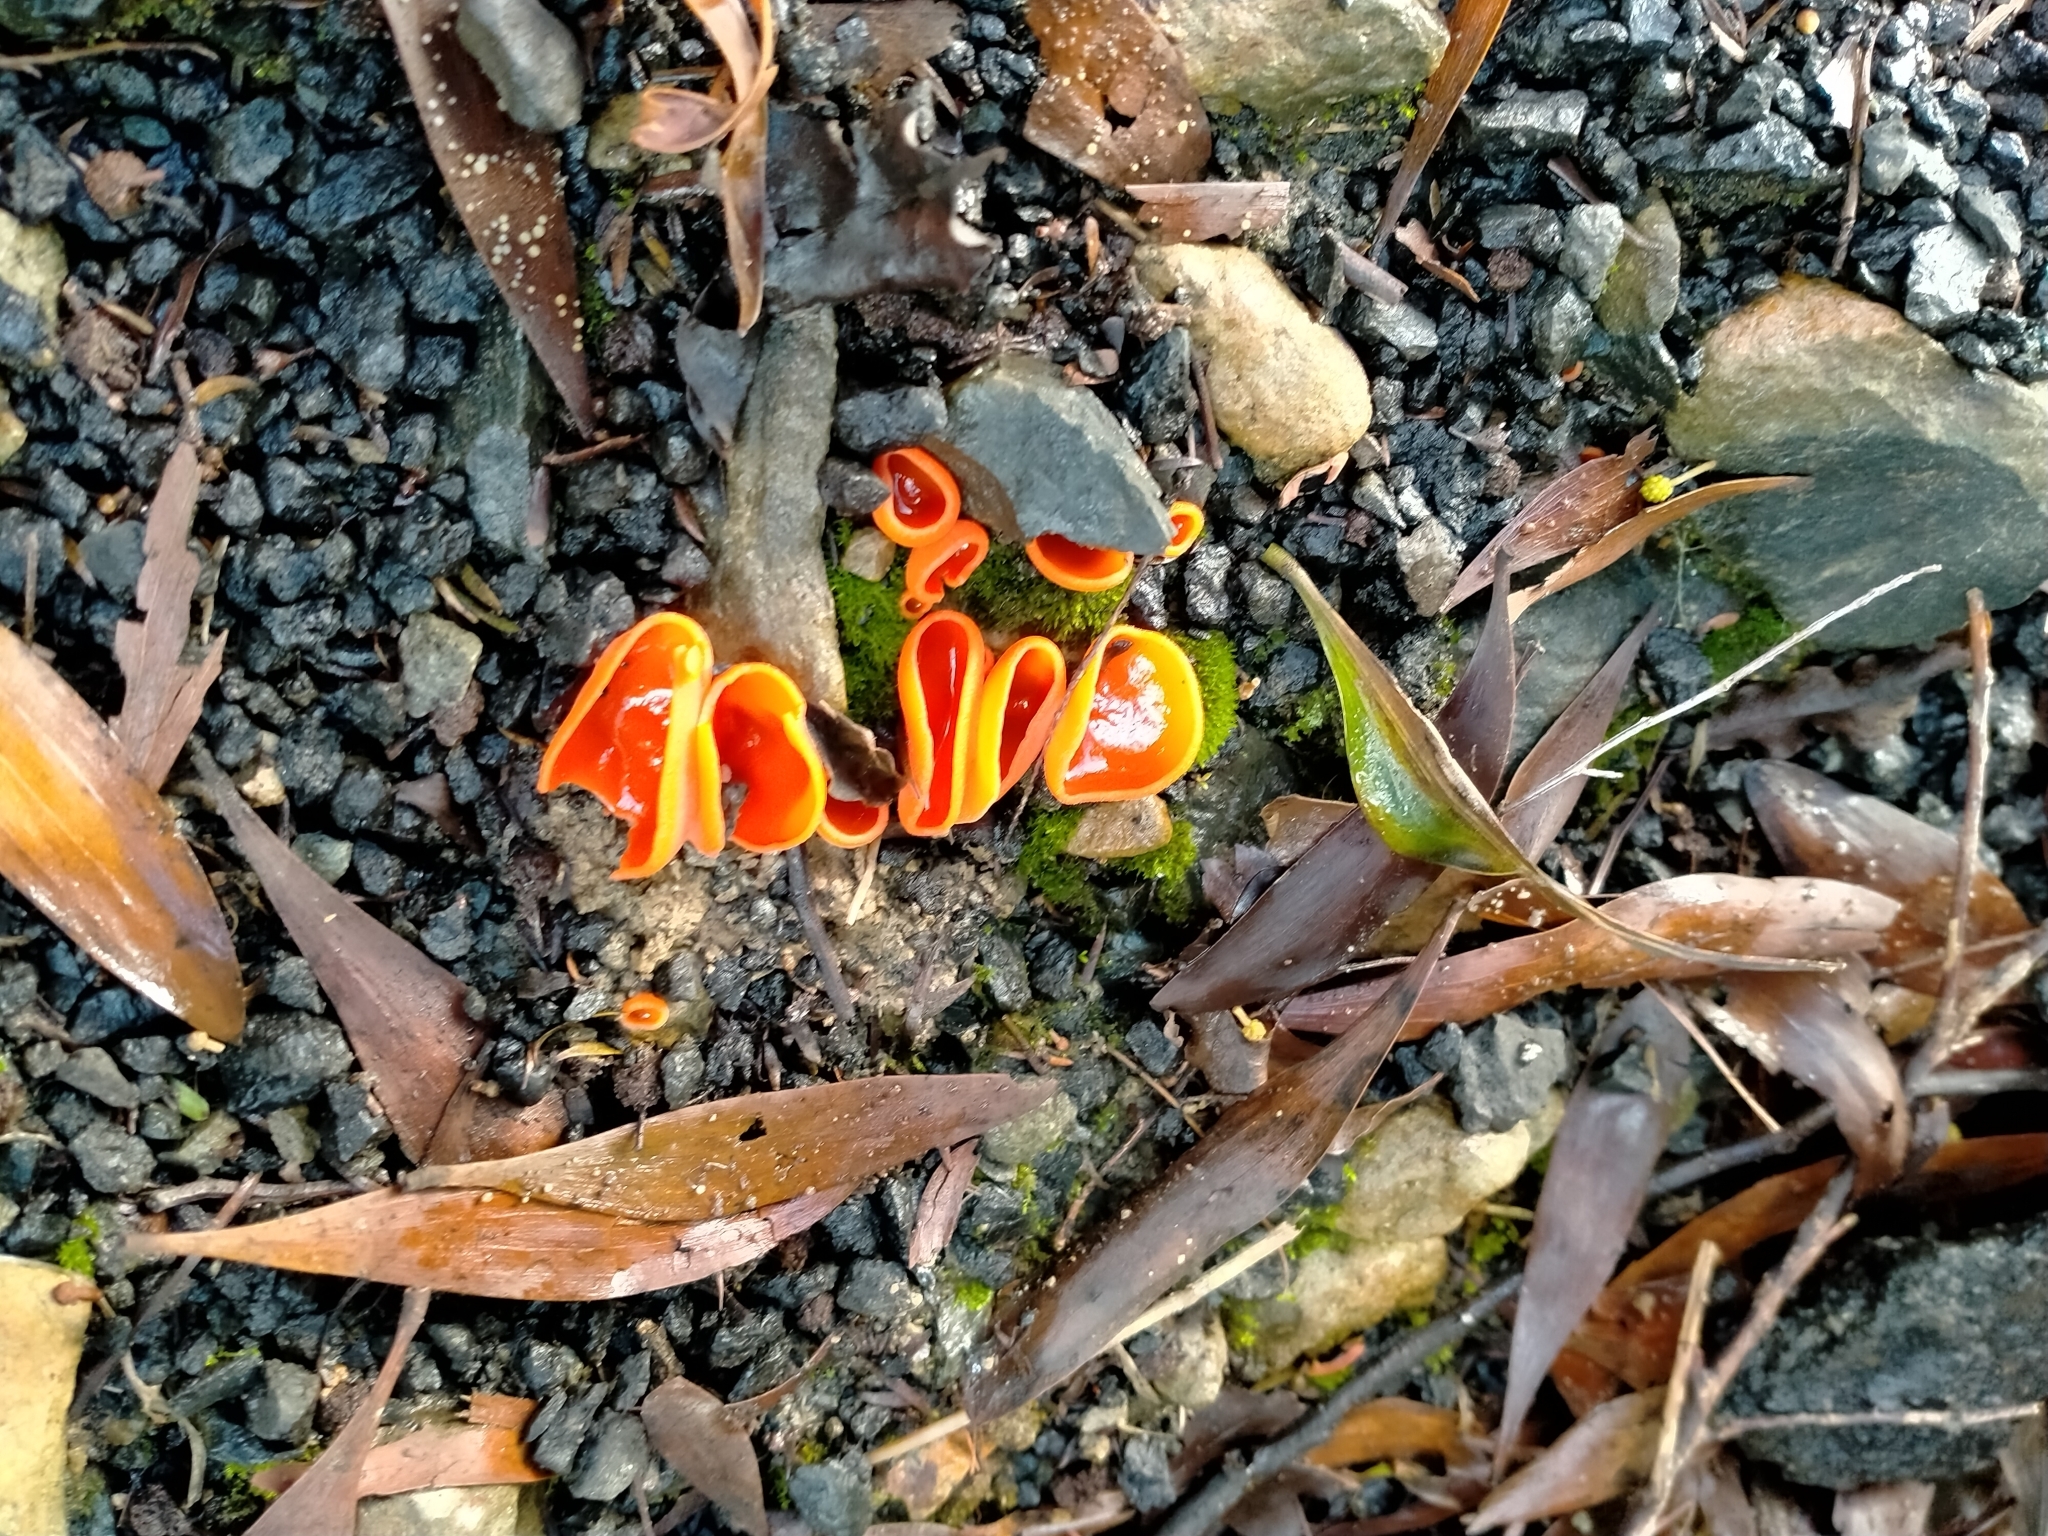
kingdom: Fungi
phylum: Ascomycota
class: Pezizomycetes
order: Pezizales
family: Pyronemataceae
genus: Aleuria
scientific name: Aleuria aurantia
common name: Orange peel fungus
